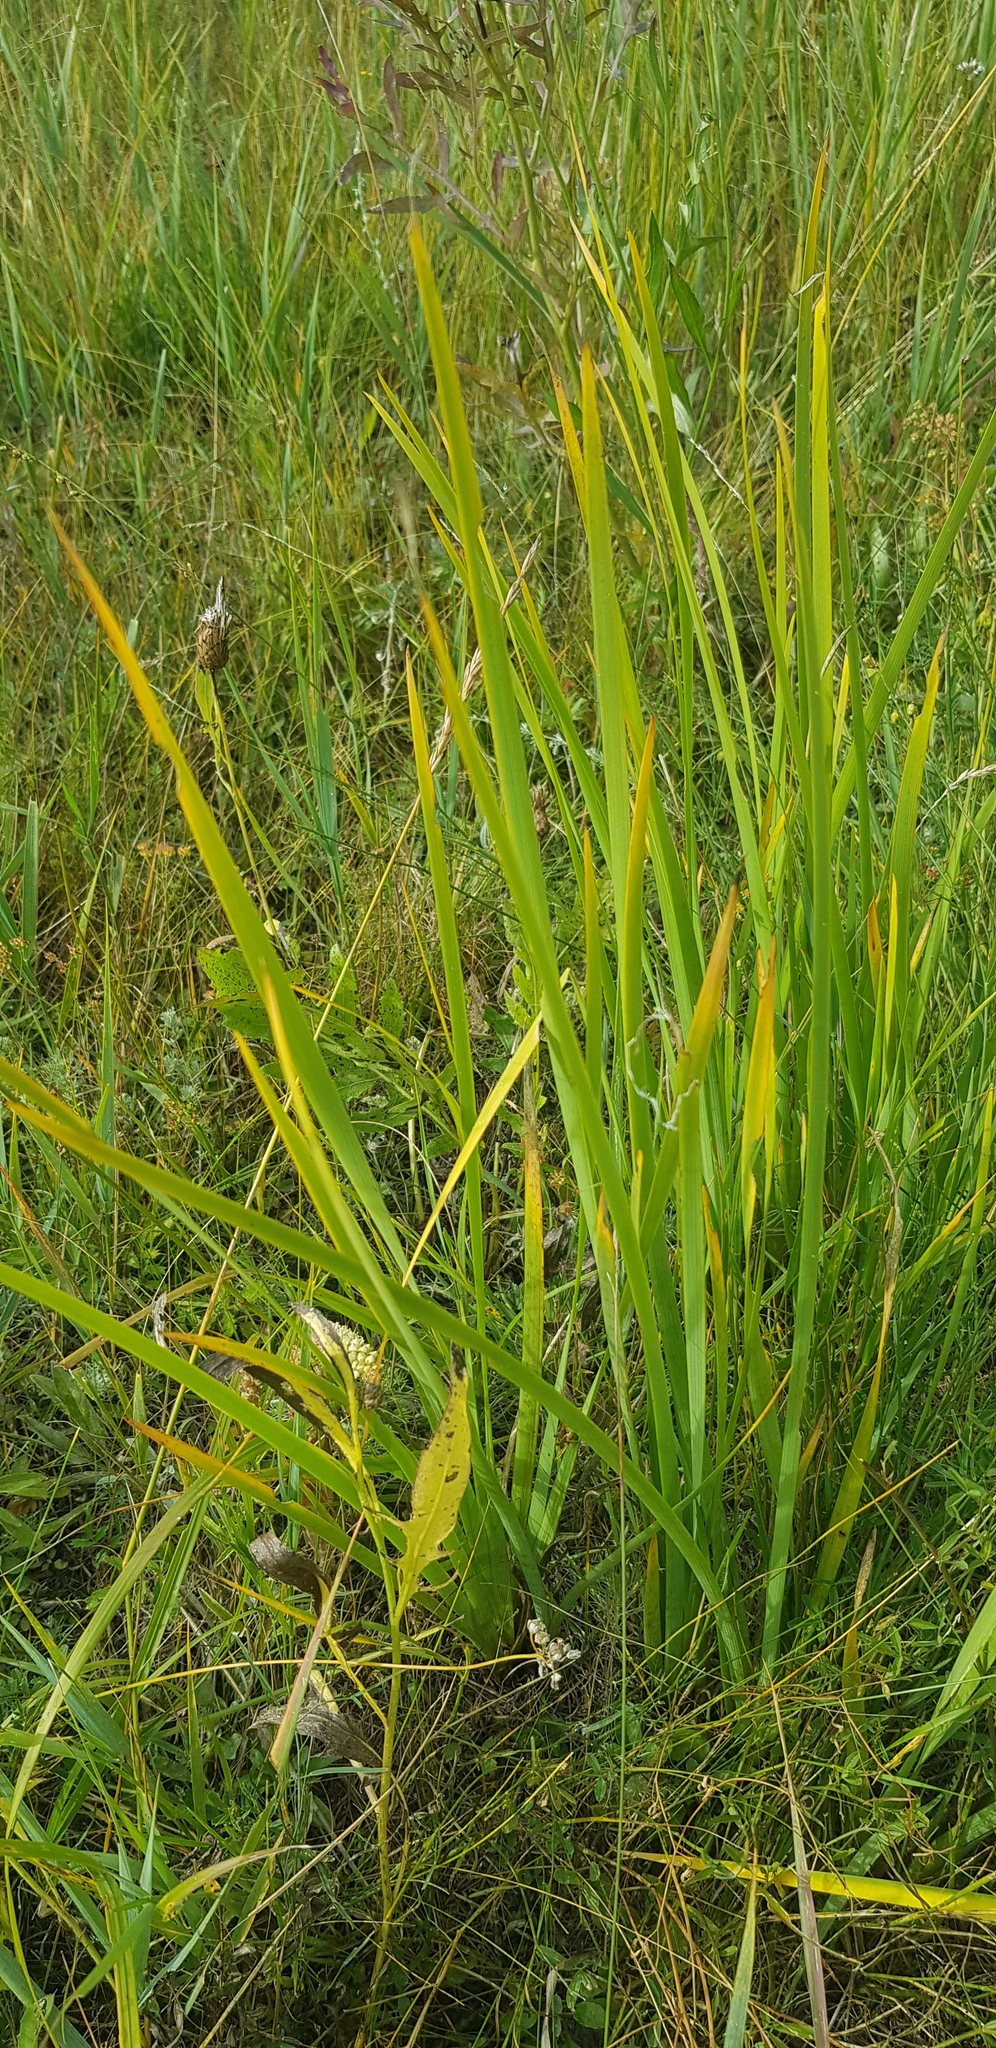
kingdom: Plantae
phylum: Tracheophyta
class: Liliopsida
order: Asparagales
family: Iridaceae
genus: Iris
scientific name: Iris humilis
